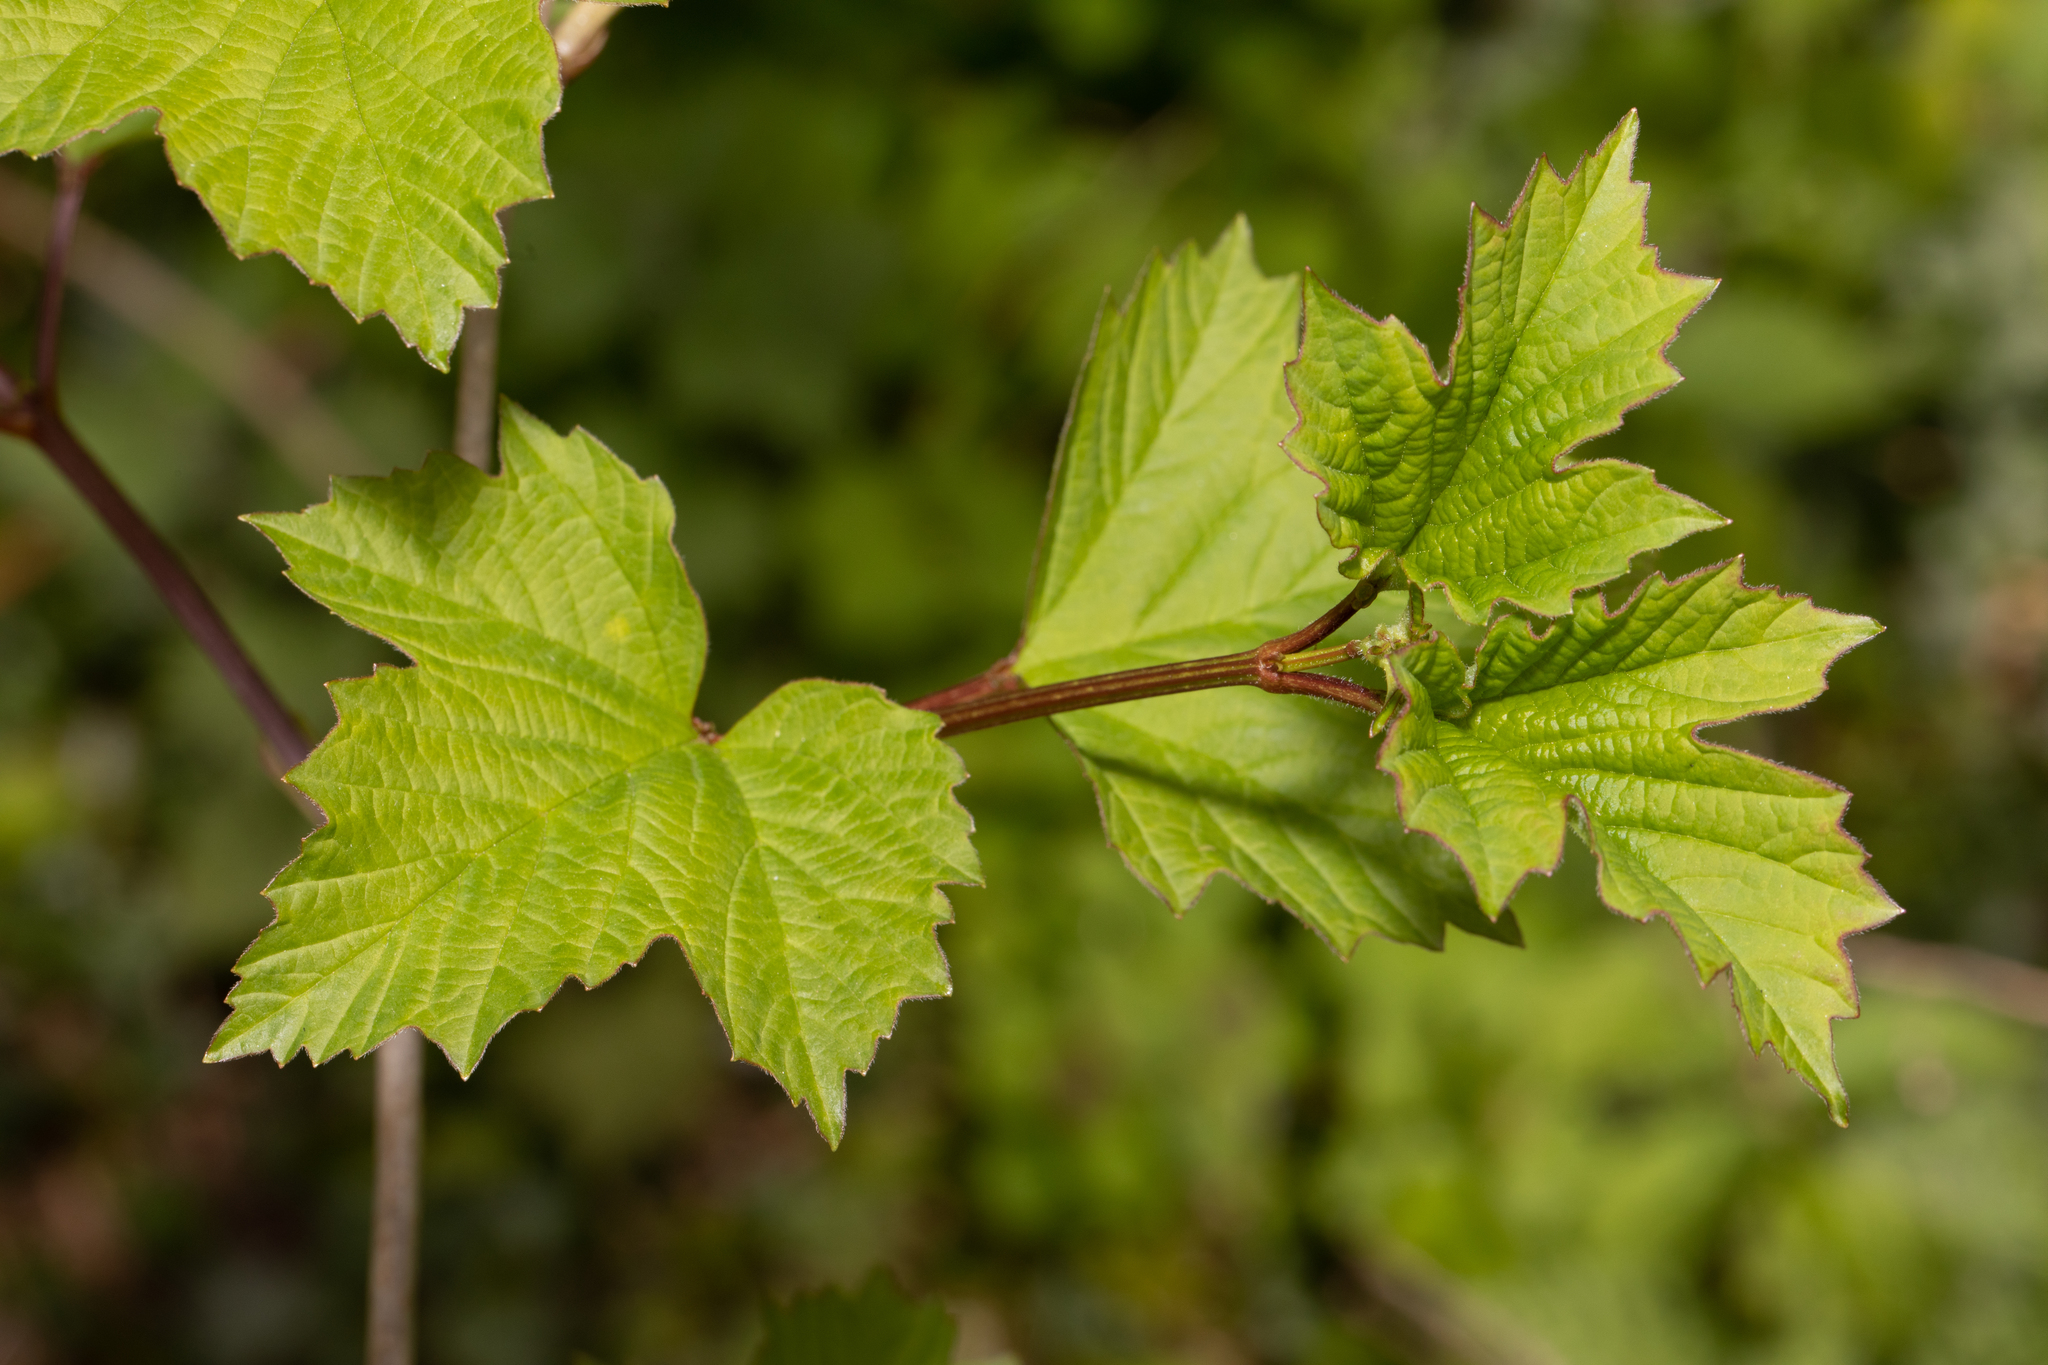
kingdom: Plantae
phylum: Tracheophyta
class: Magnoliopsida
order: Dipsacales
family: Viburnaceae
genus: Viburnum
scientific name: Viburnum opulus
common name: Guelder-rose
